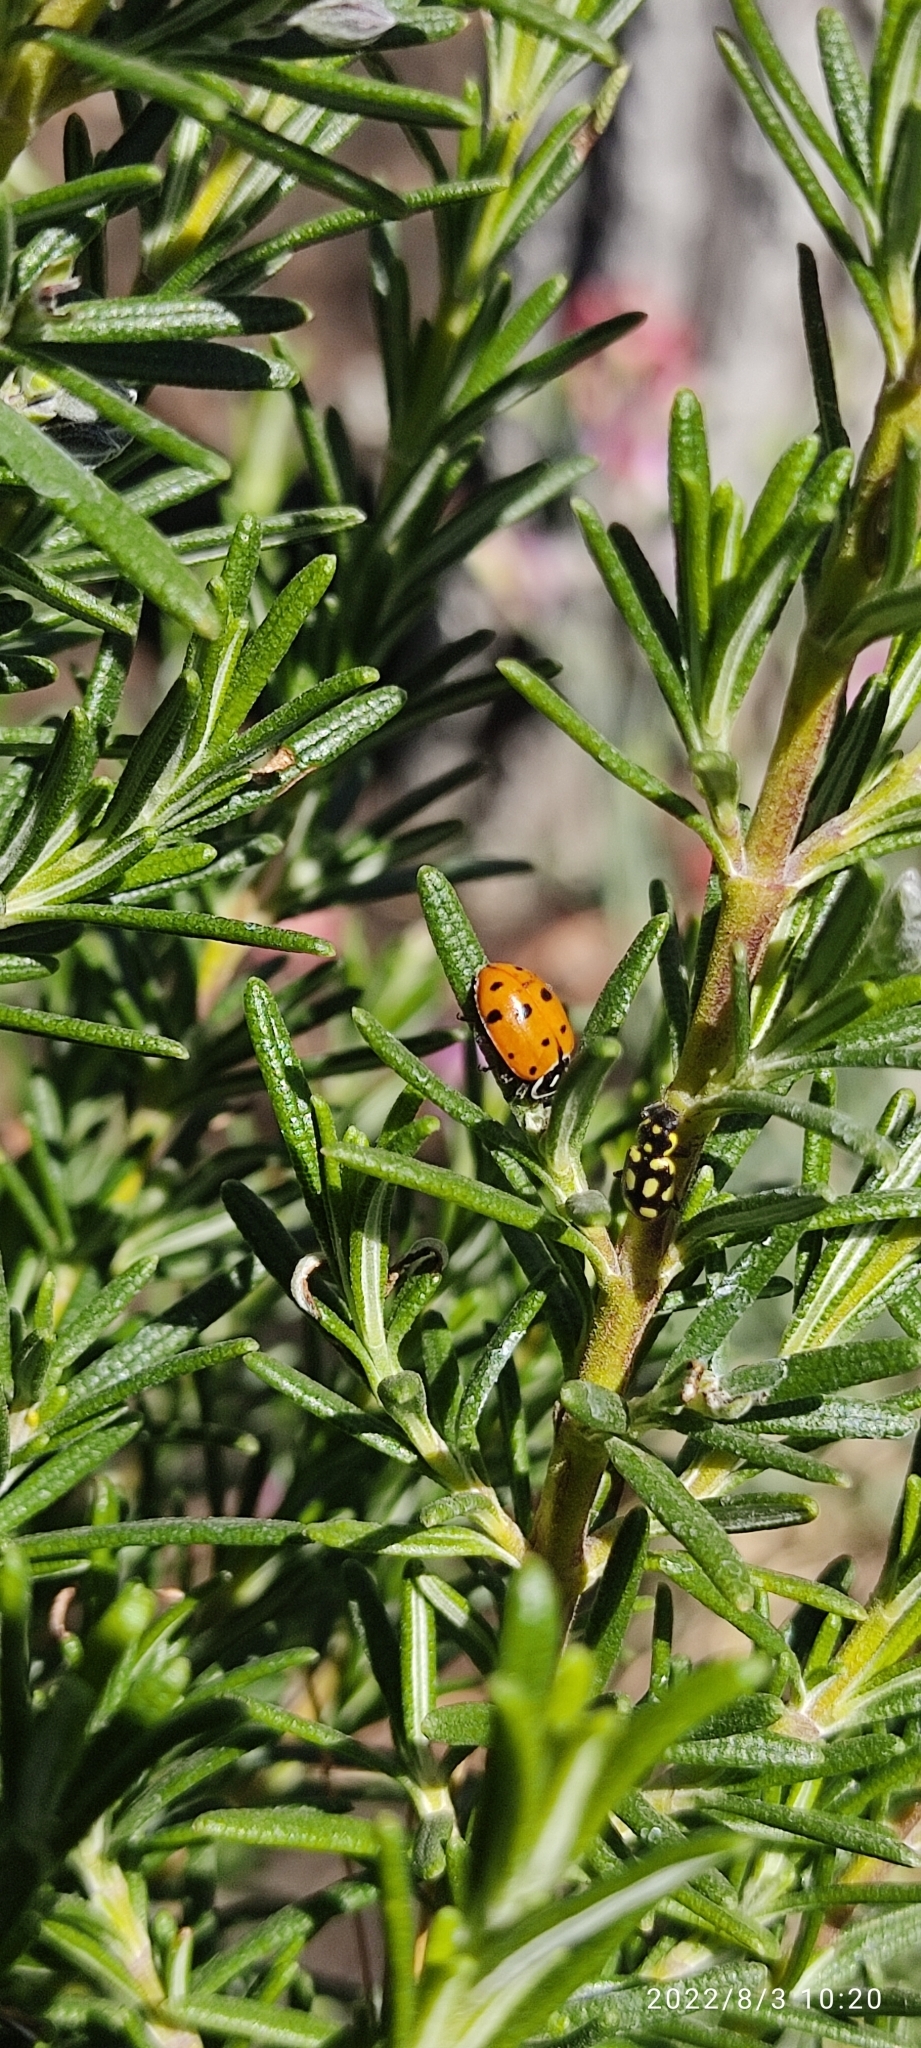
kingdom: Animalia
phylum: Arthropoda
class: Insecta
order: Coleoptera
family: Coccinellidae
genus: Hippodamia
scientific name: Hippodamia convergens
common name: Convergent lady beetle
